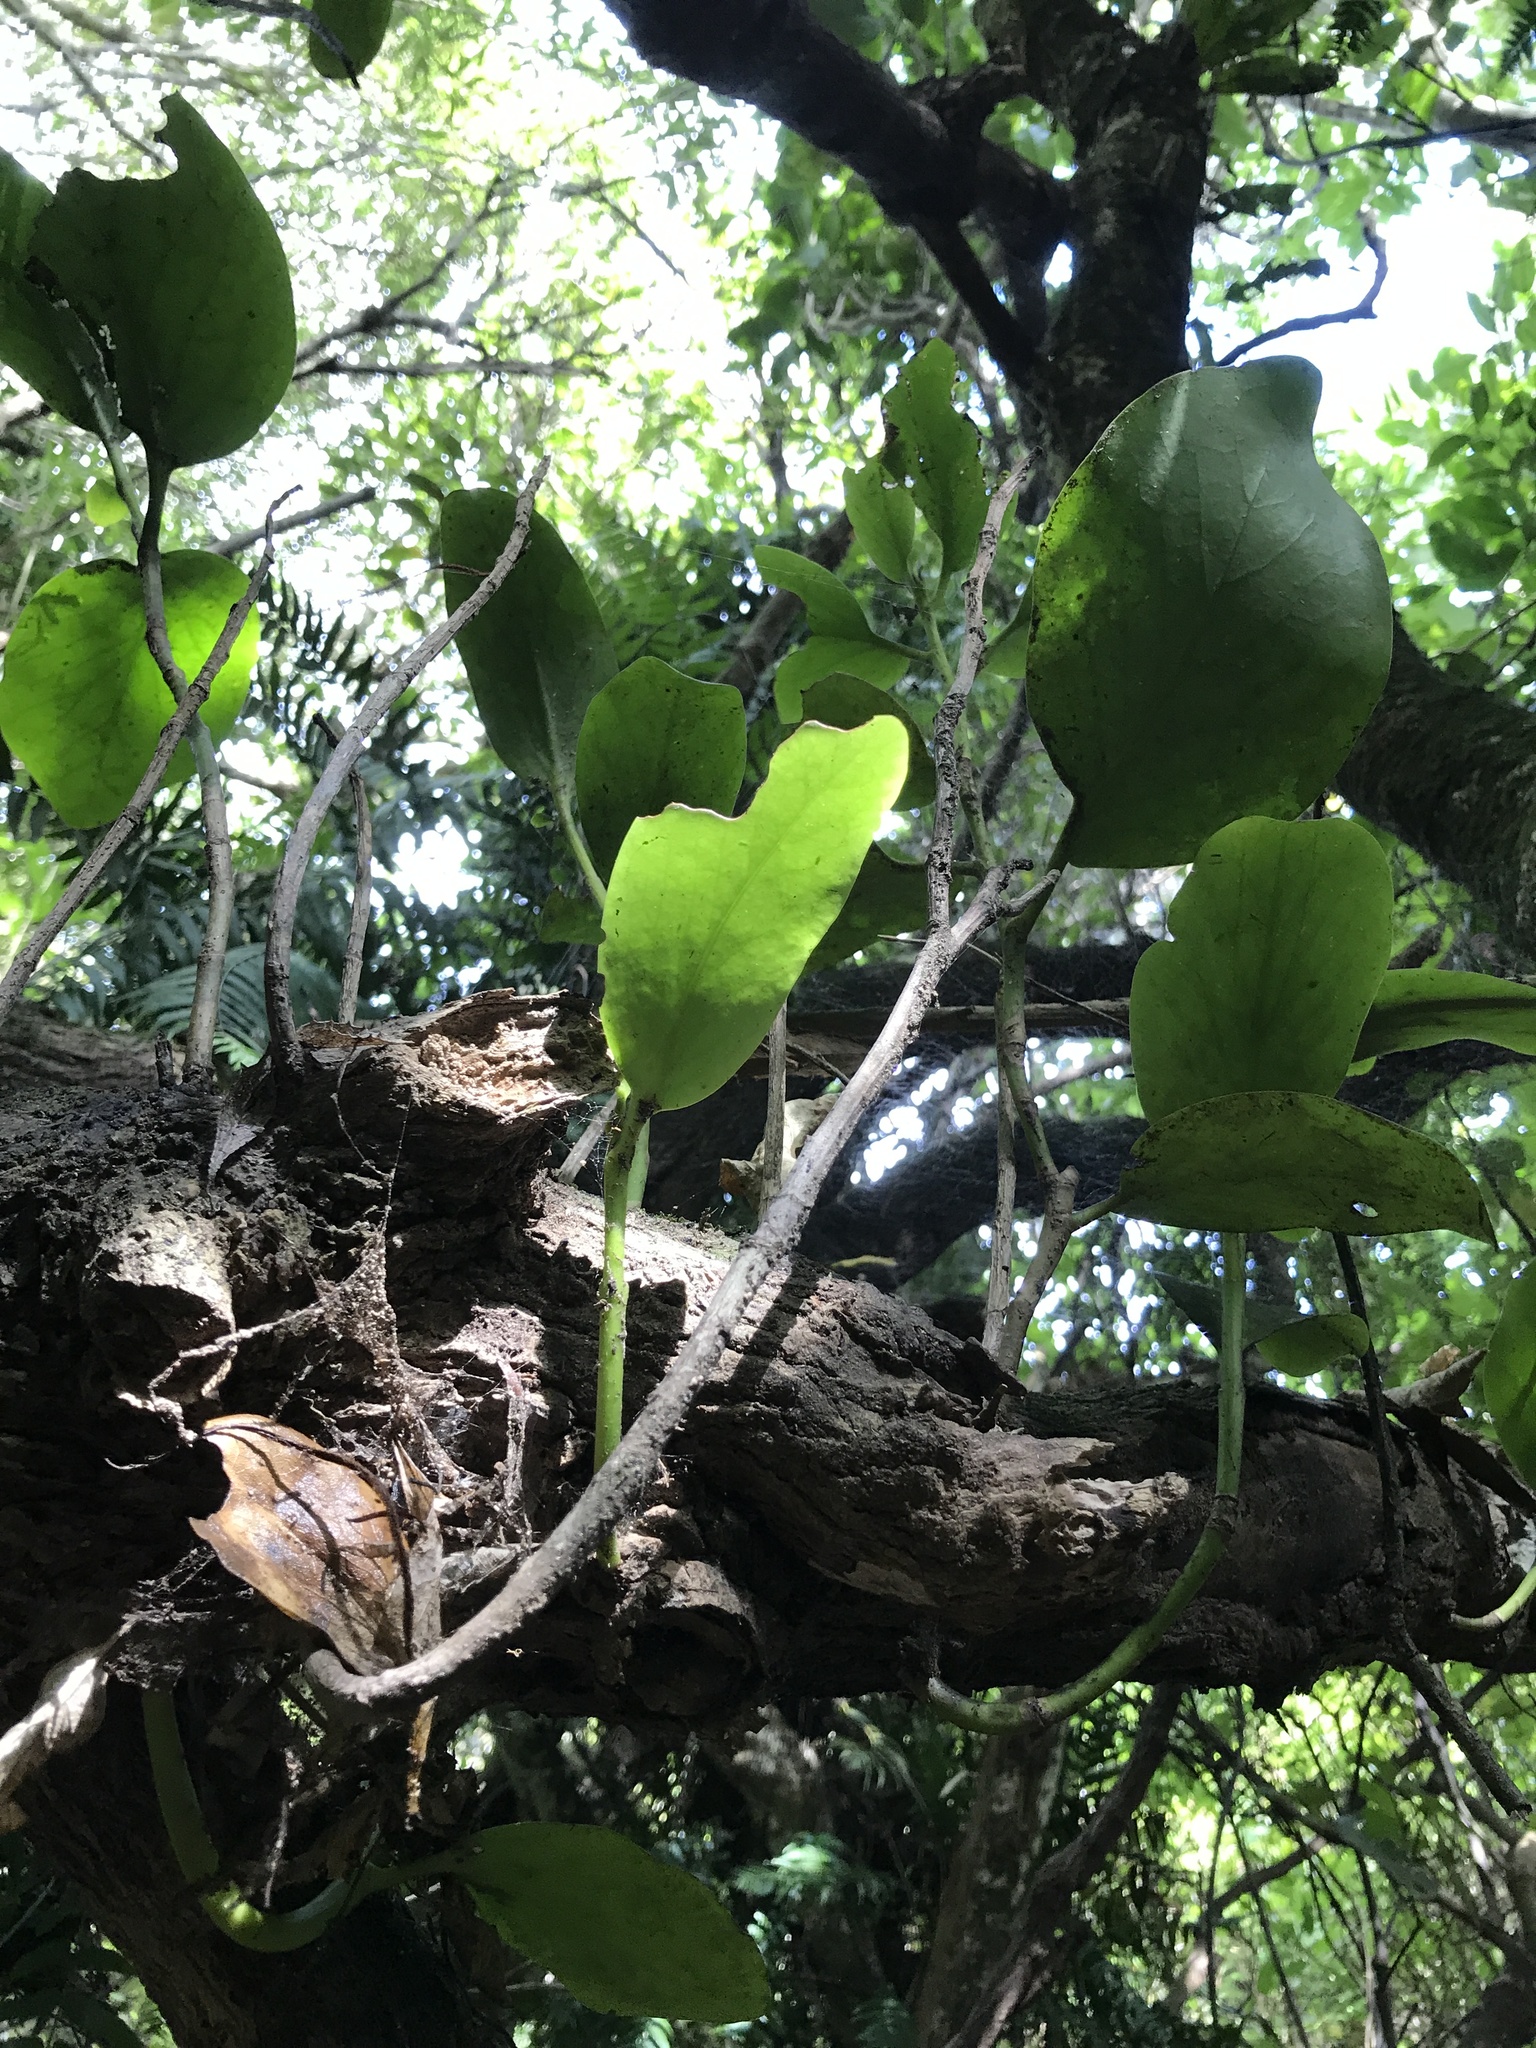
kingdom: Plantae
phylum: Tracheophyta
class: Magnoliopsida
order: Apiales
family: Griseliniaceae
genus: Griselinia
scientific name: Griselinia lucida
